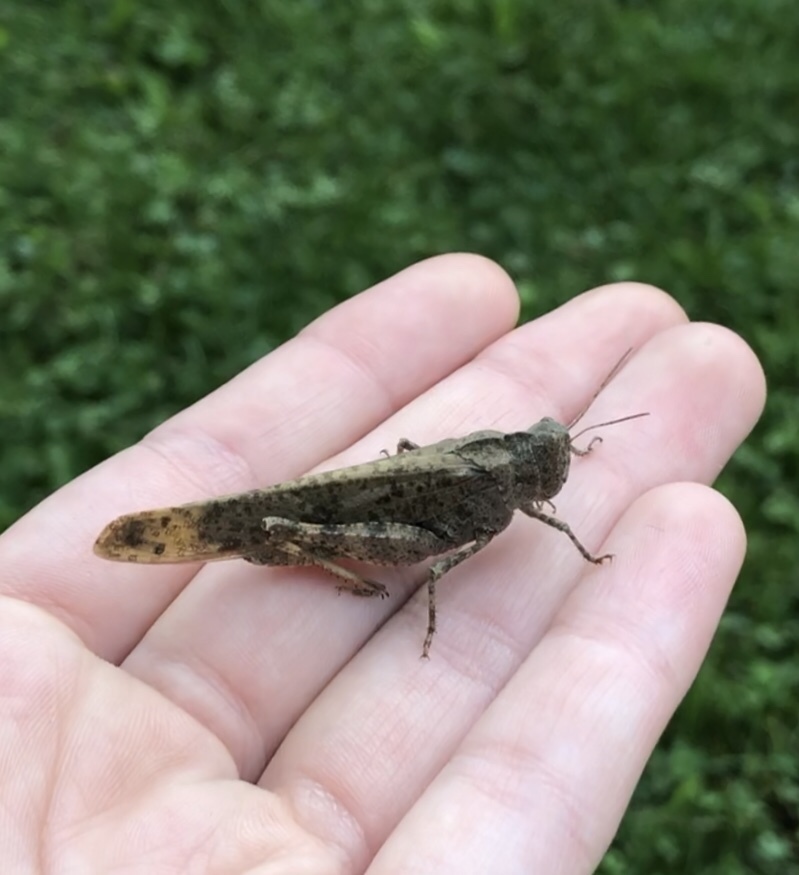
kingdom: Animalia
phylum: Arthropoda
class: Insecta
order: Orthoptera
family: Acrididae
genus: Dissosteira
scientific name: Dissosteira carolina
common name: Carolina grasshopper
